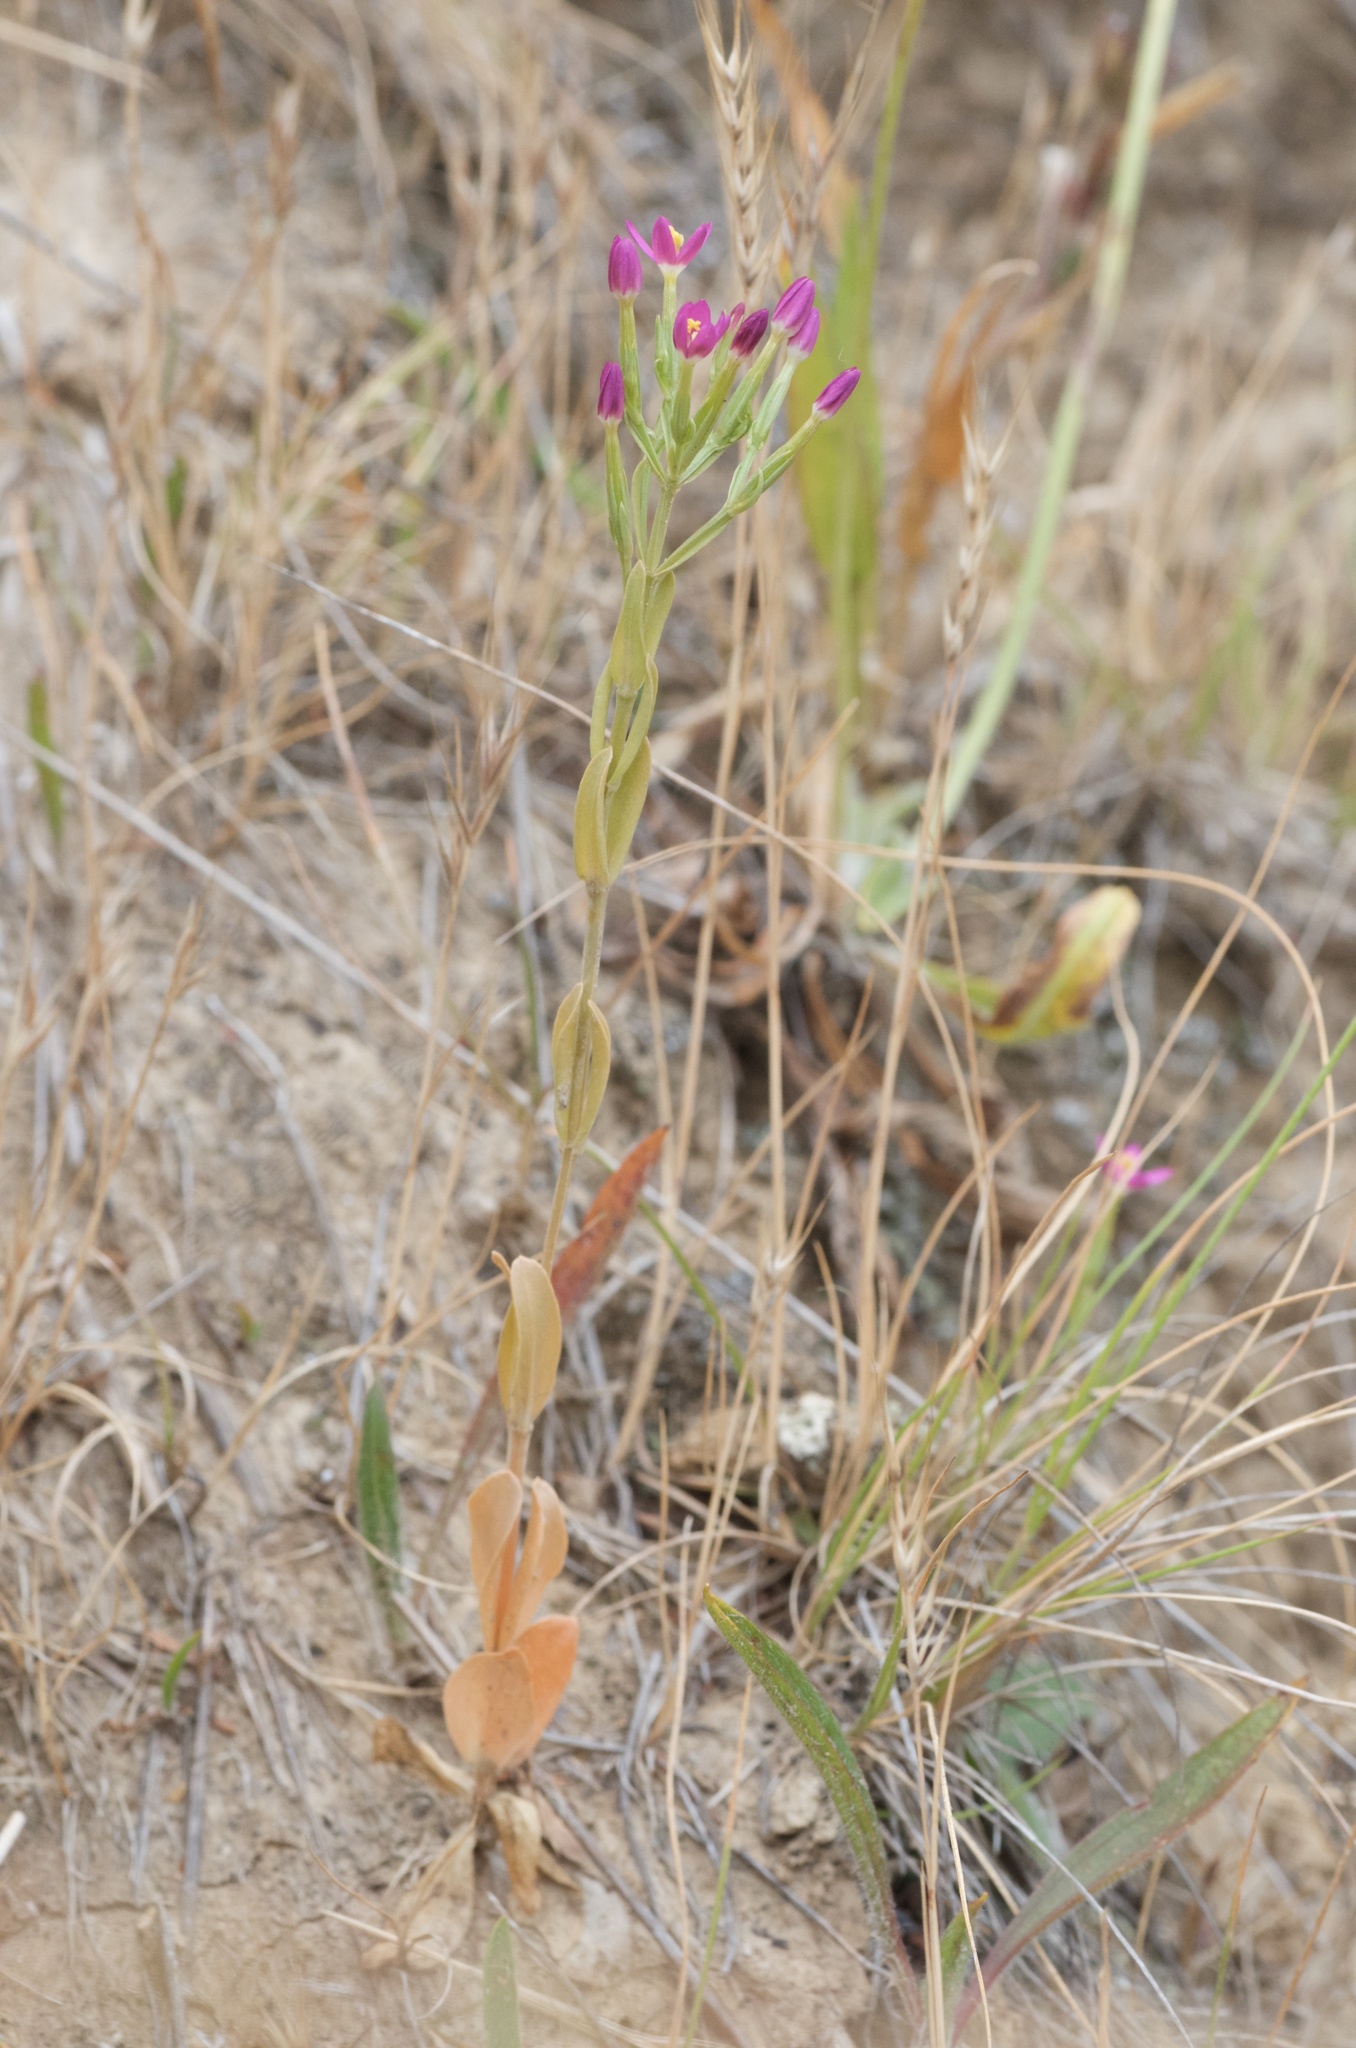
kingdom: Plantae
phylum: Tracheophyta
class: Magnoliopsida
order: Gentianales
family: Gentianaceae
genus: Centaurium
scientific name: Centaurium erythraea
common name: Common centaury
